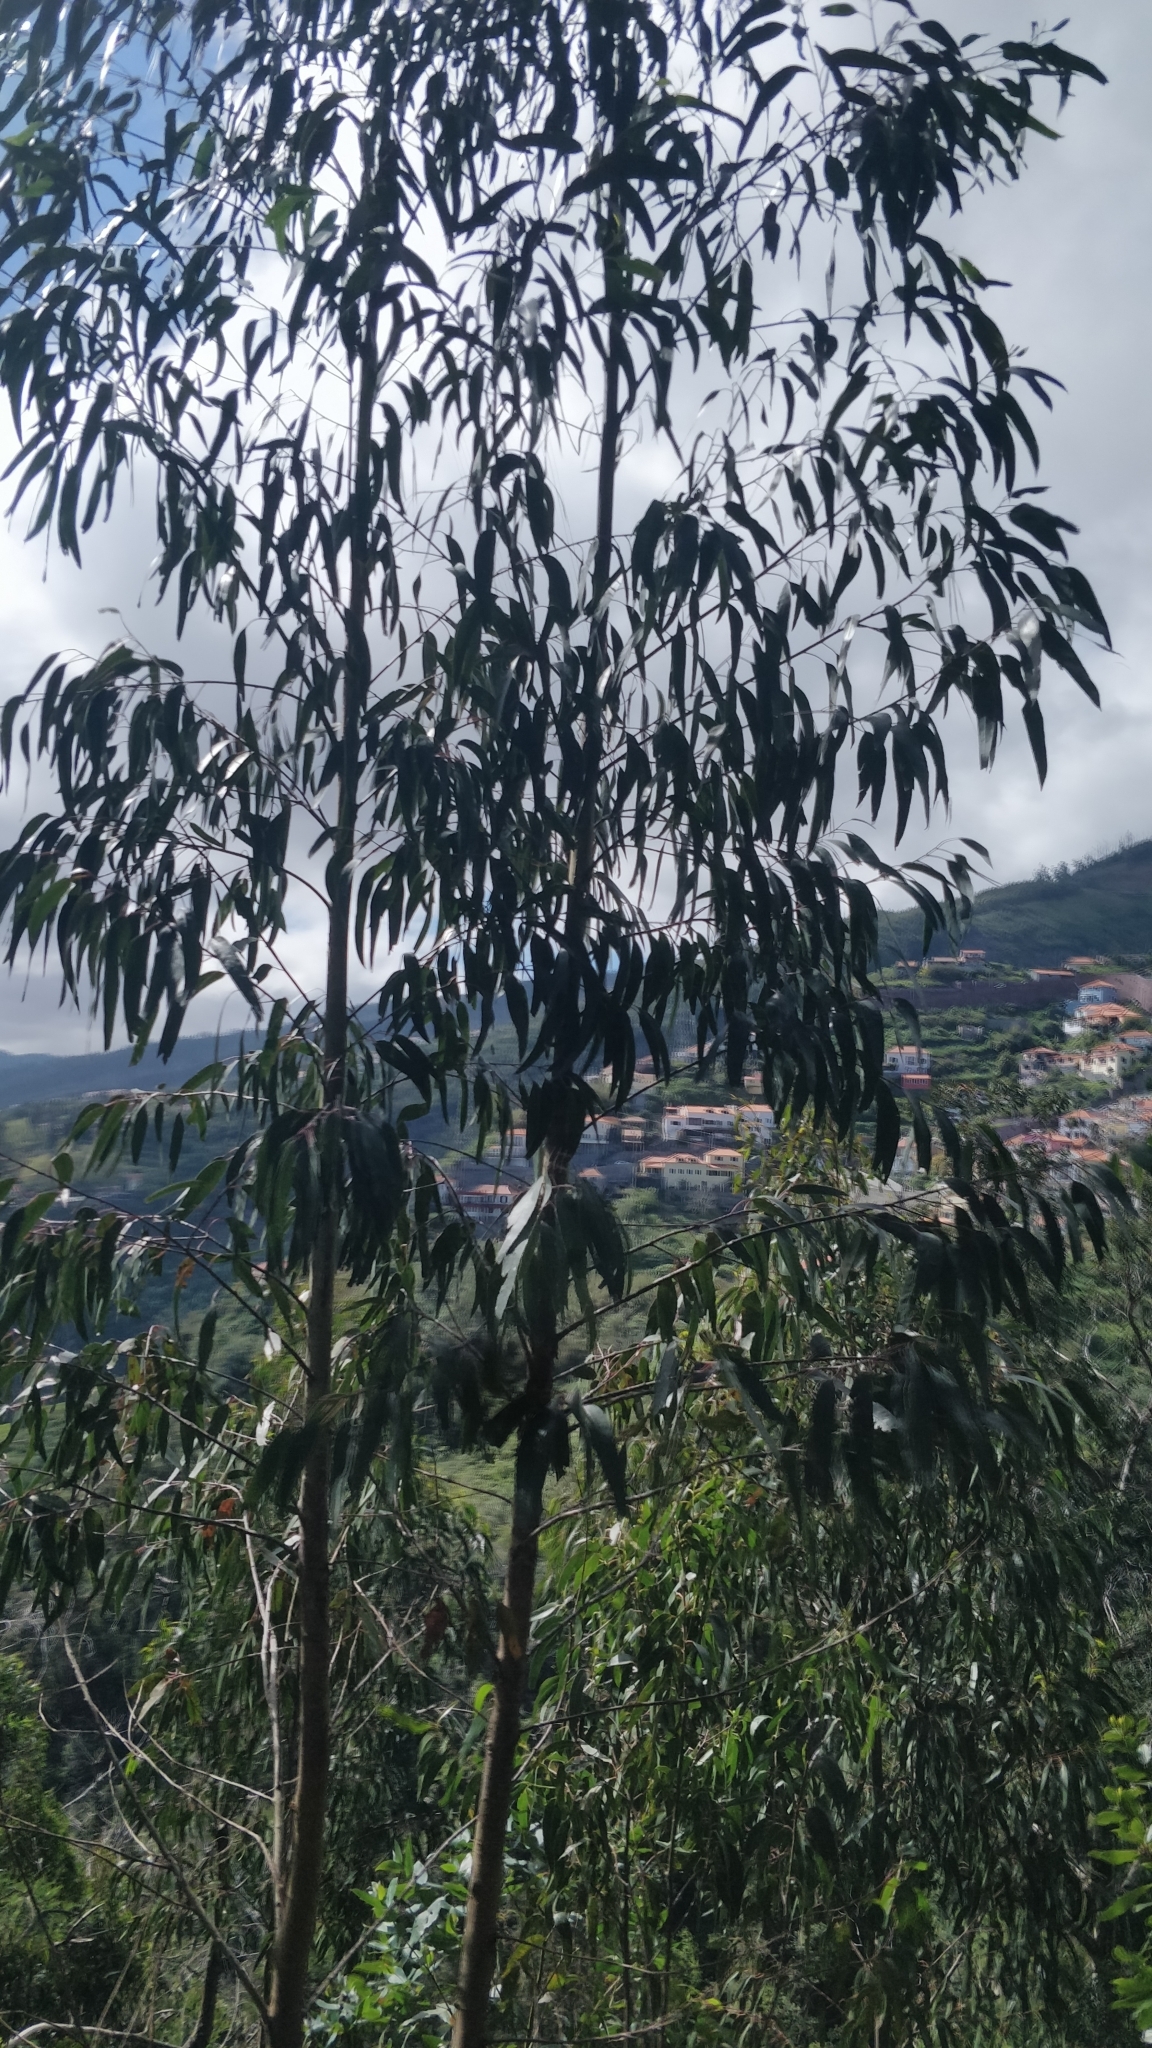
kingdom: Plantae
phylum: Tracheophyta
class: Magnoliopsida
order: Myrtales
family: Myrtaceae
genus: Eucalyptus
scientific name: Eucalyptus globulus
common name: Southern blue-gum
